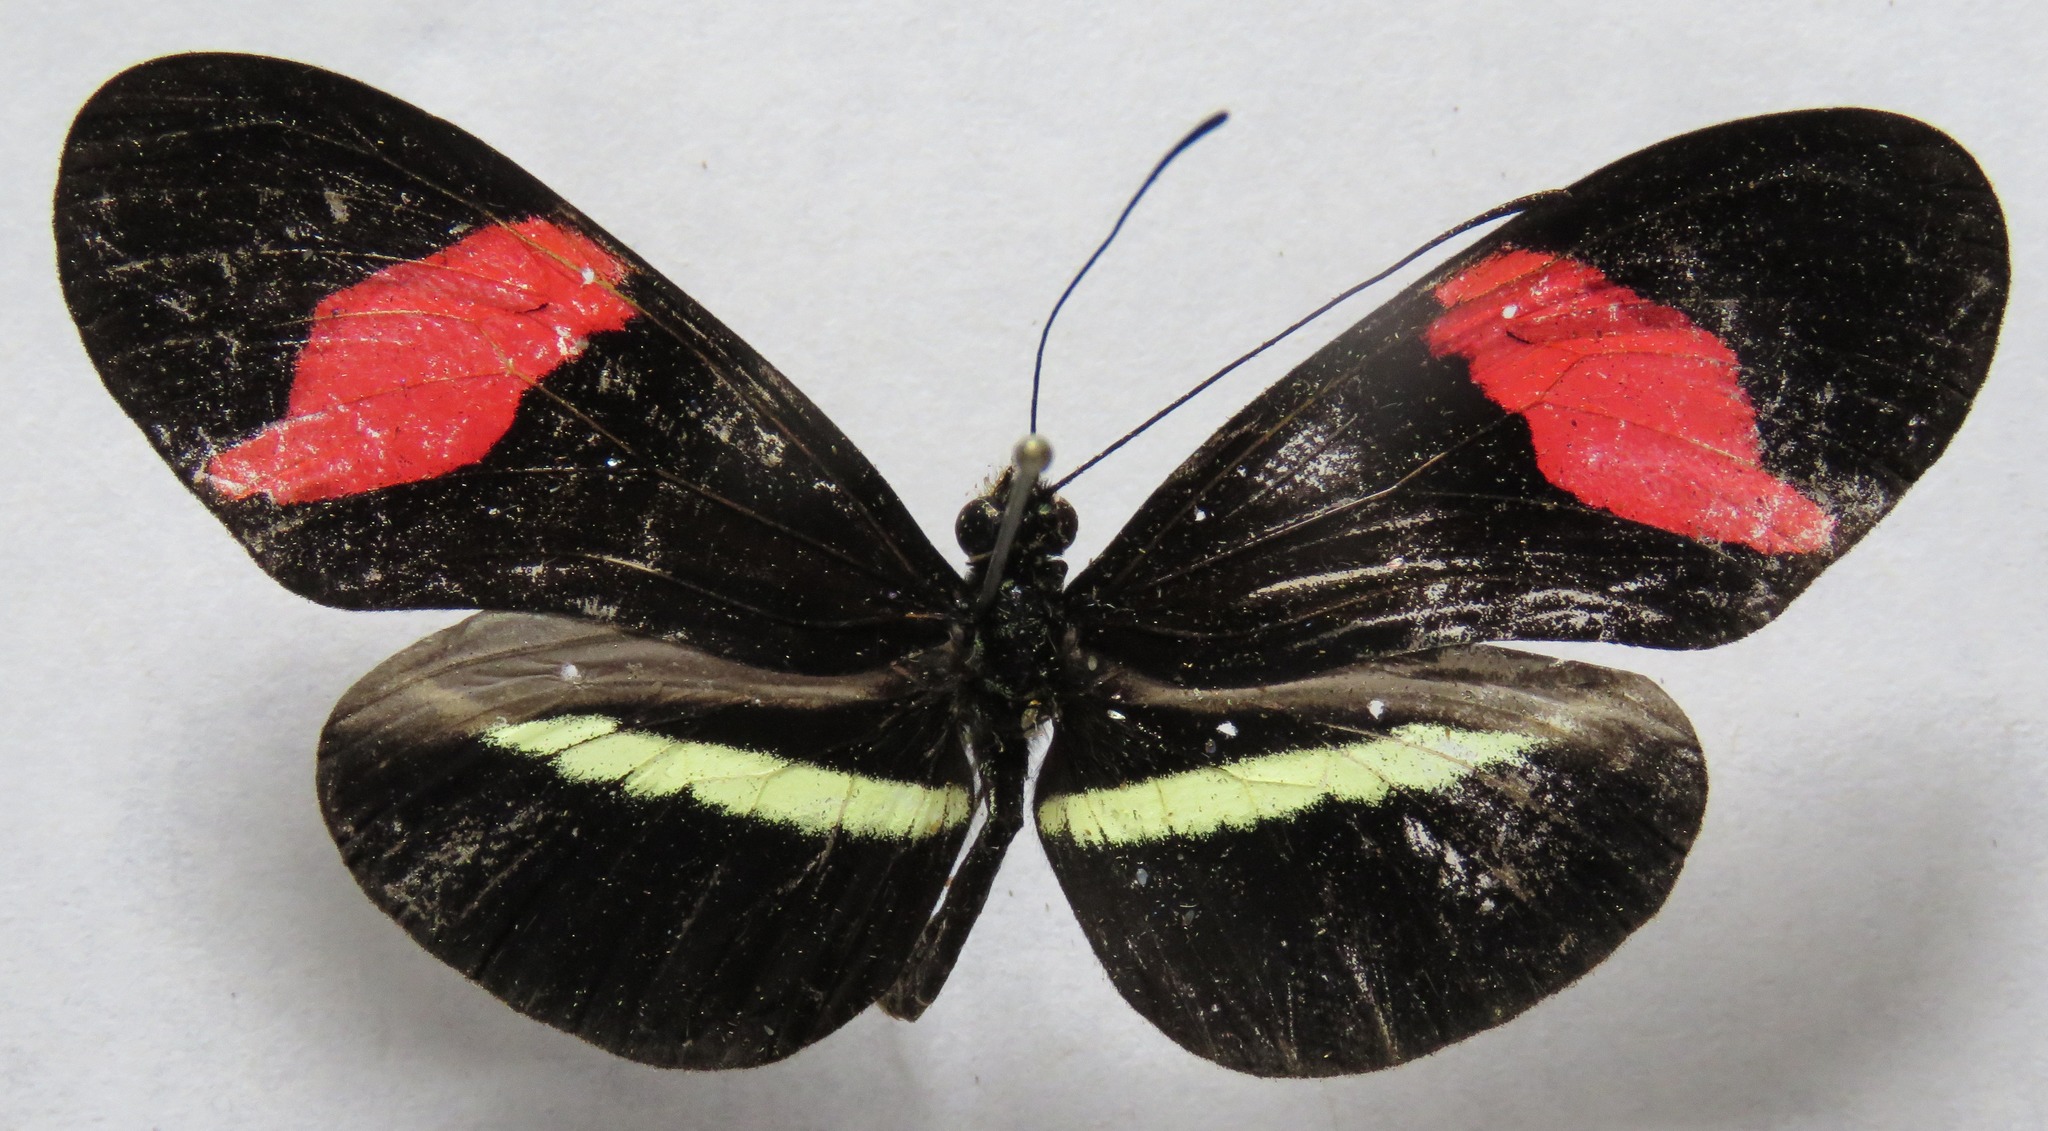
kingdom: Animalia
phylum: Arthropoda
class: Insecta
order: Lepidoptera
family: Nymphalidae
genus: Tirumala
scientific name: Tirumala petiverana
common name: Blue monarch
